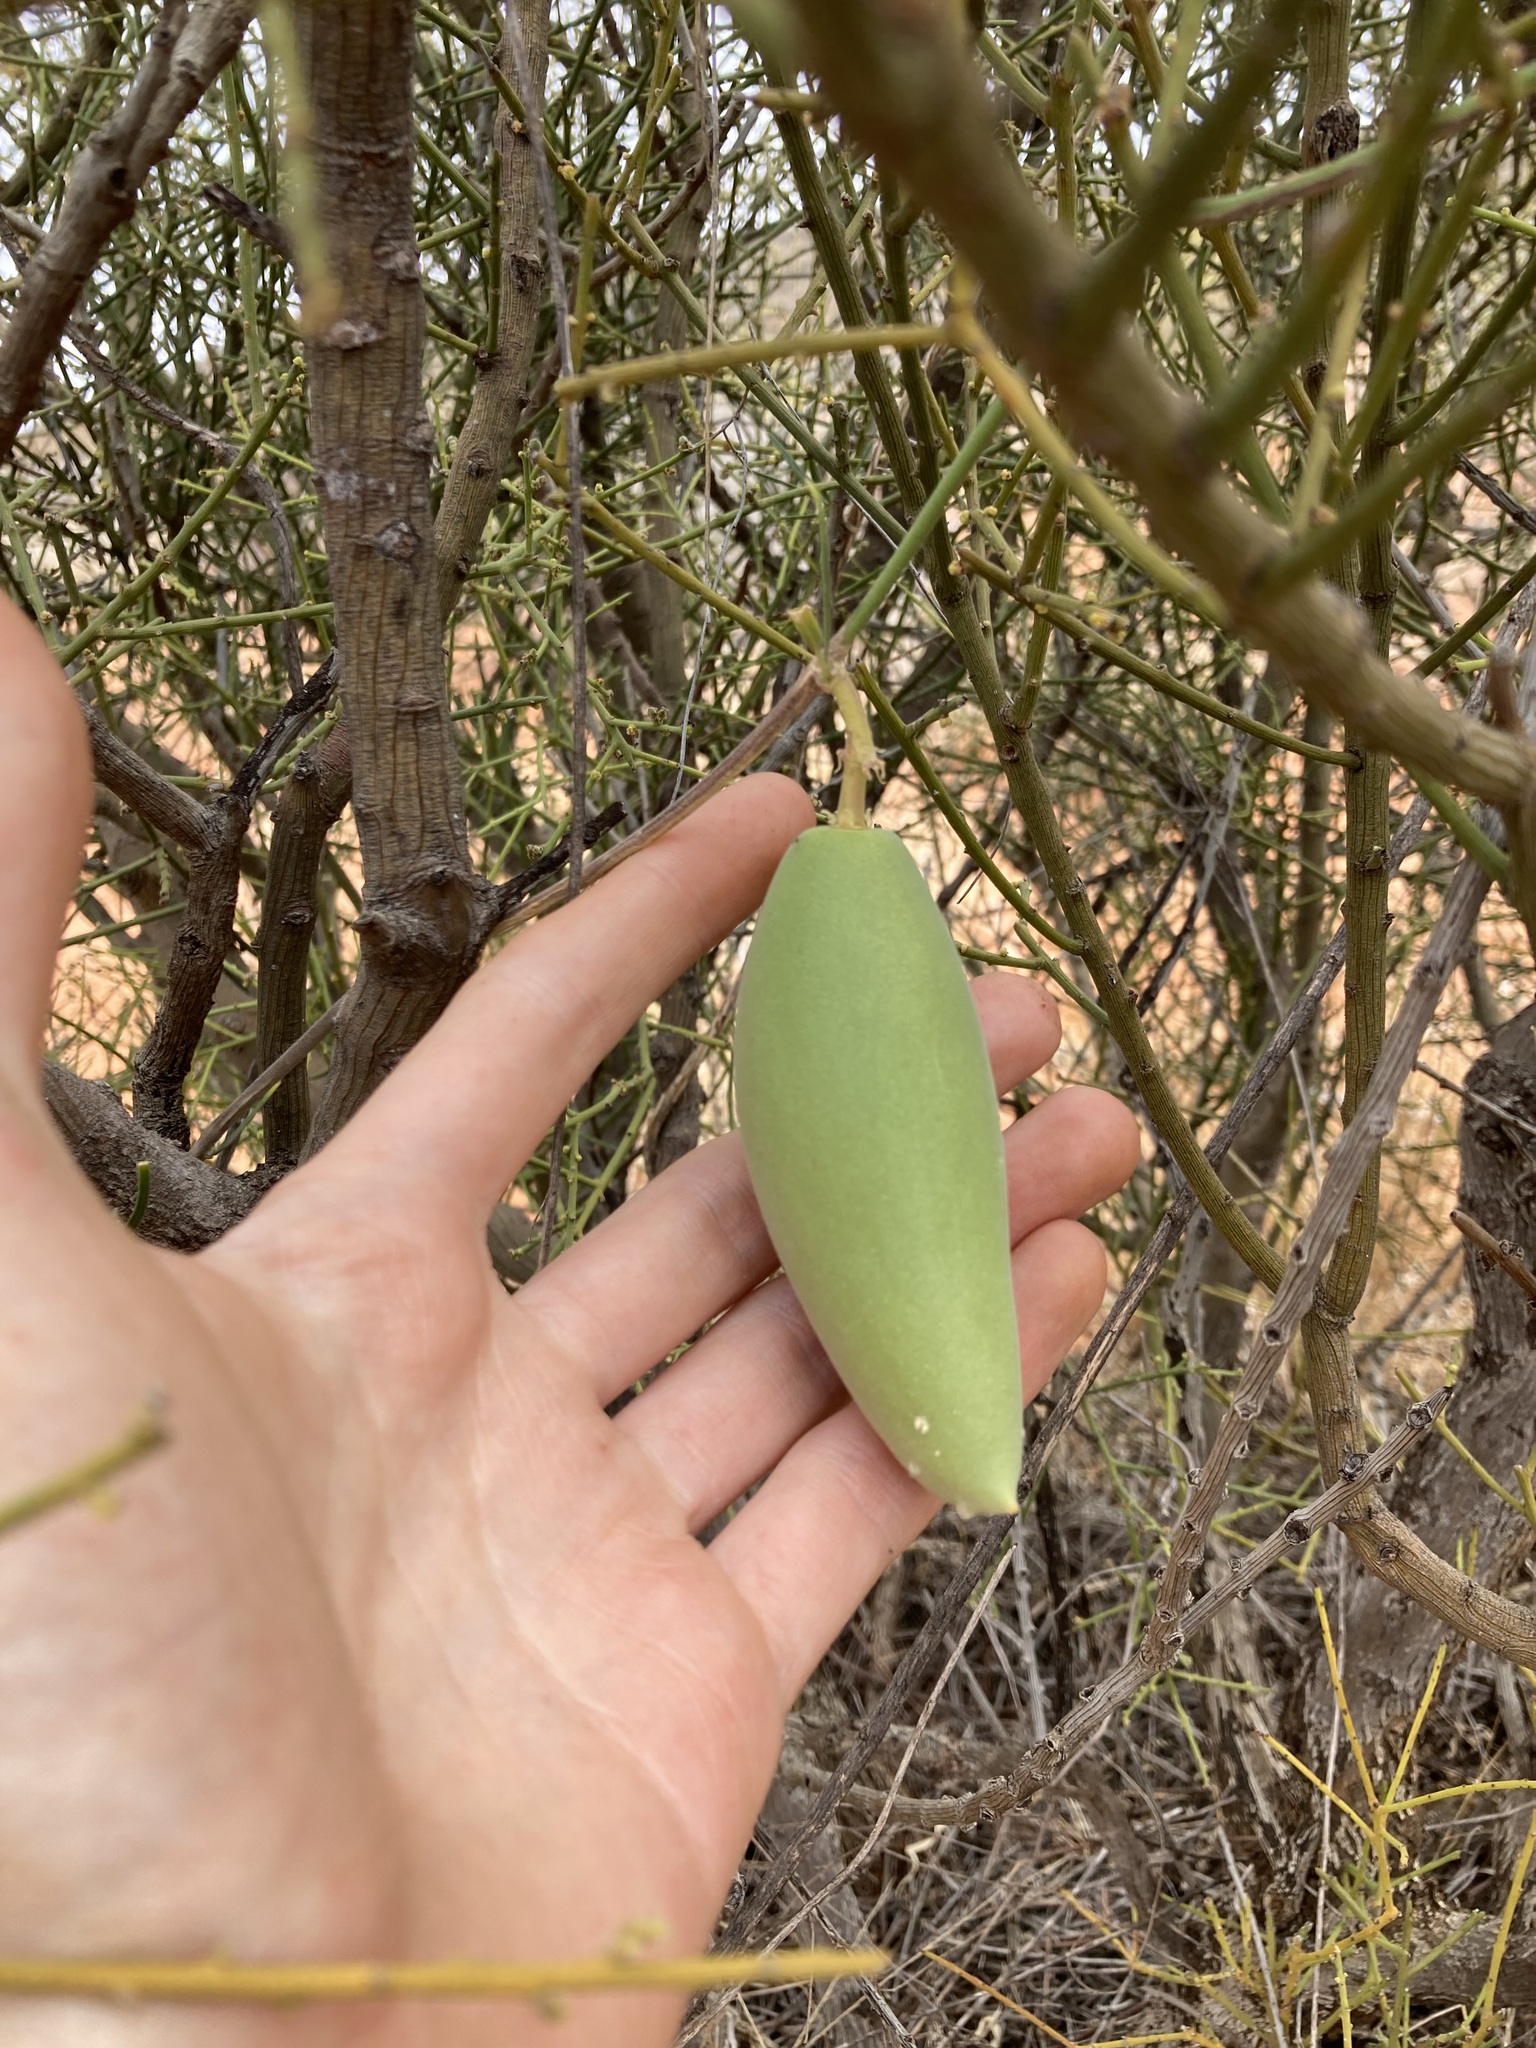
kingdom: Plantae
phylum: Tracheophyta
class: Magnoliopsida
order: Gentianales
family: Apocynaceae
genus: Leichhardtia
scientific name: Leichhardtia australis
